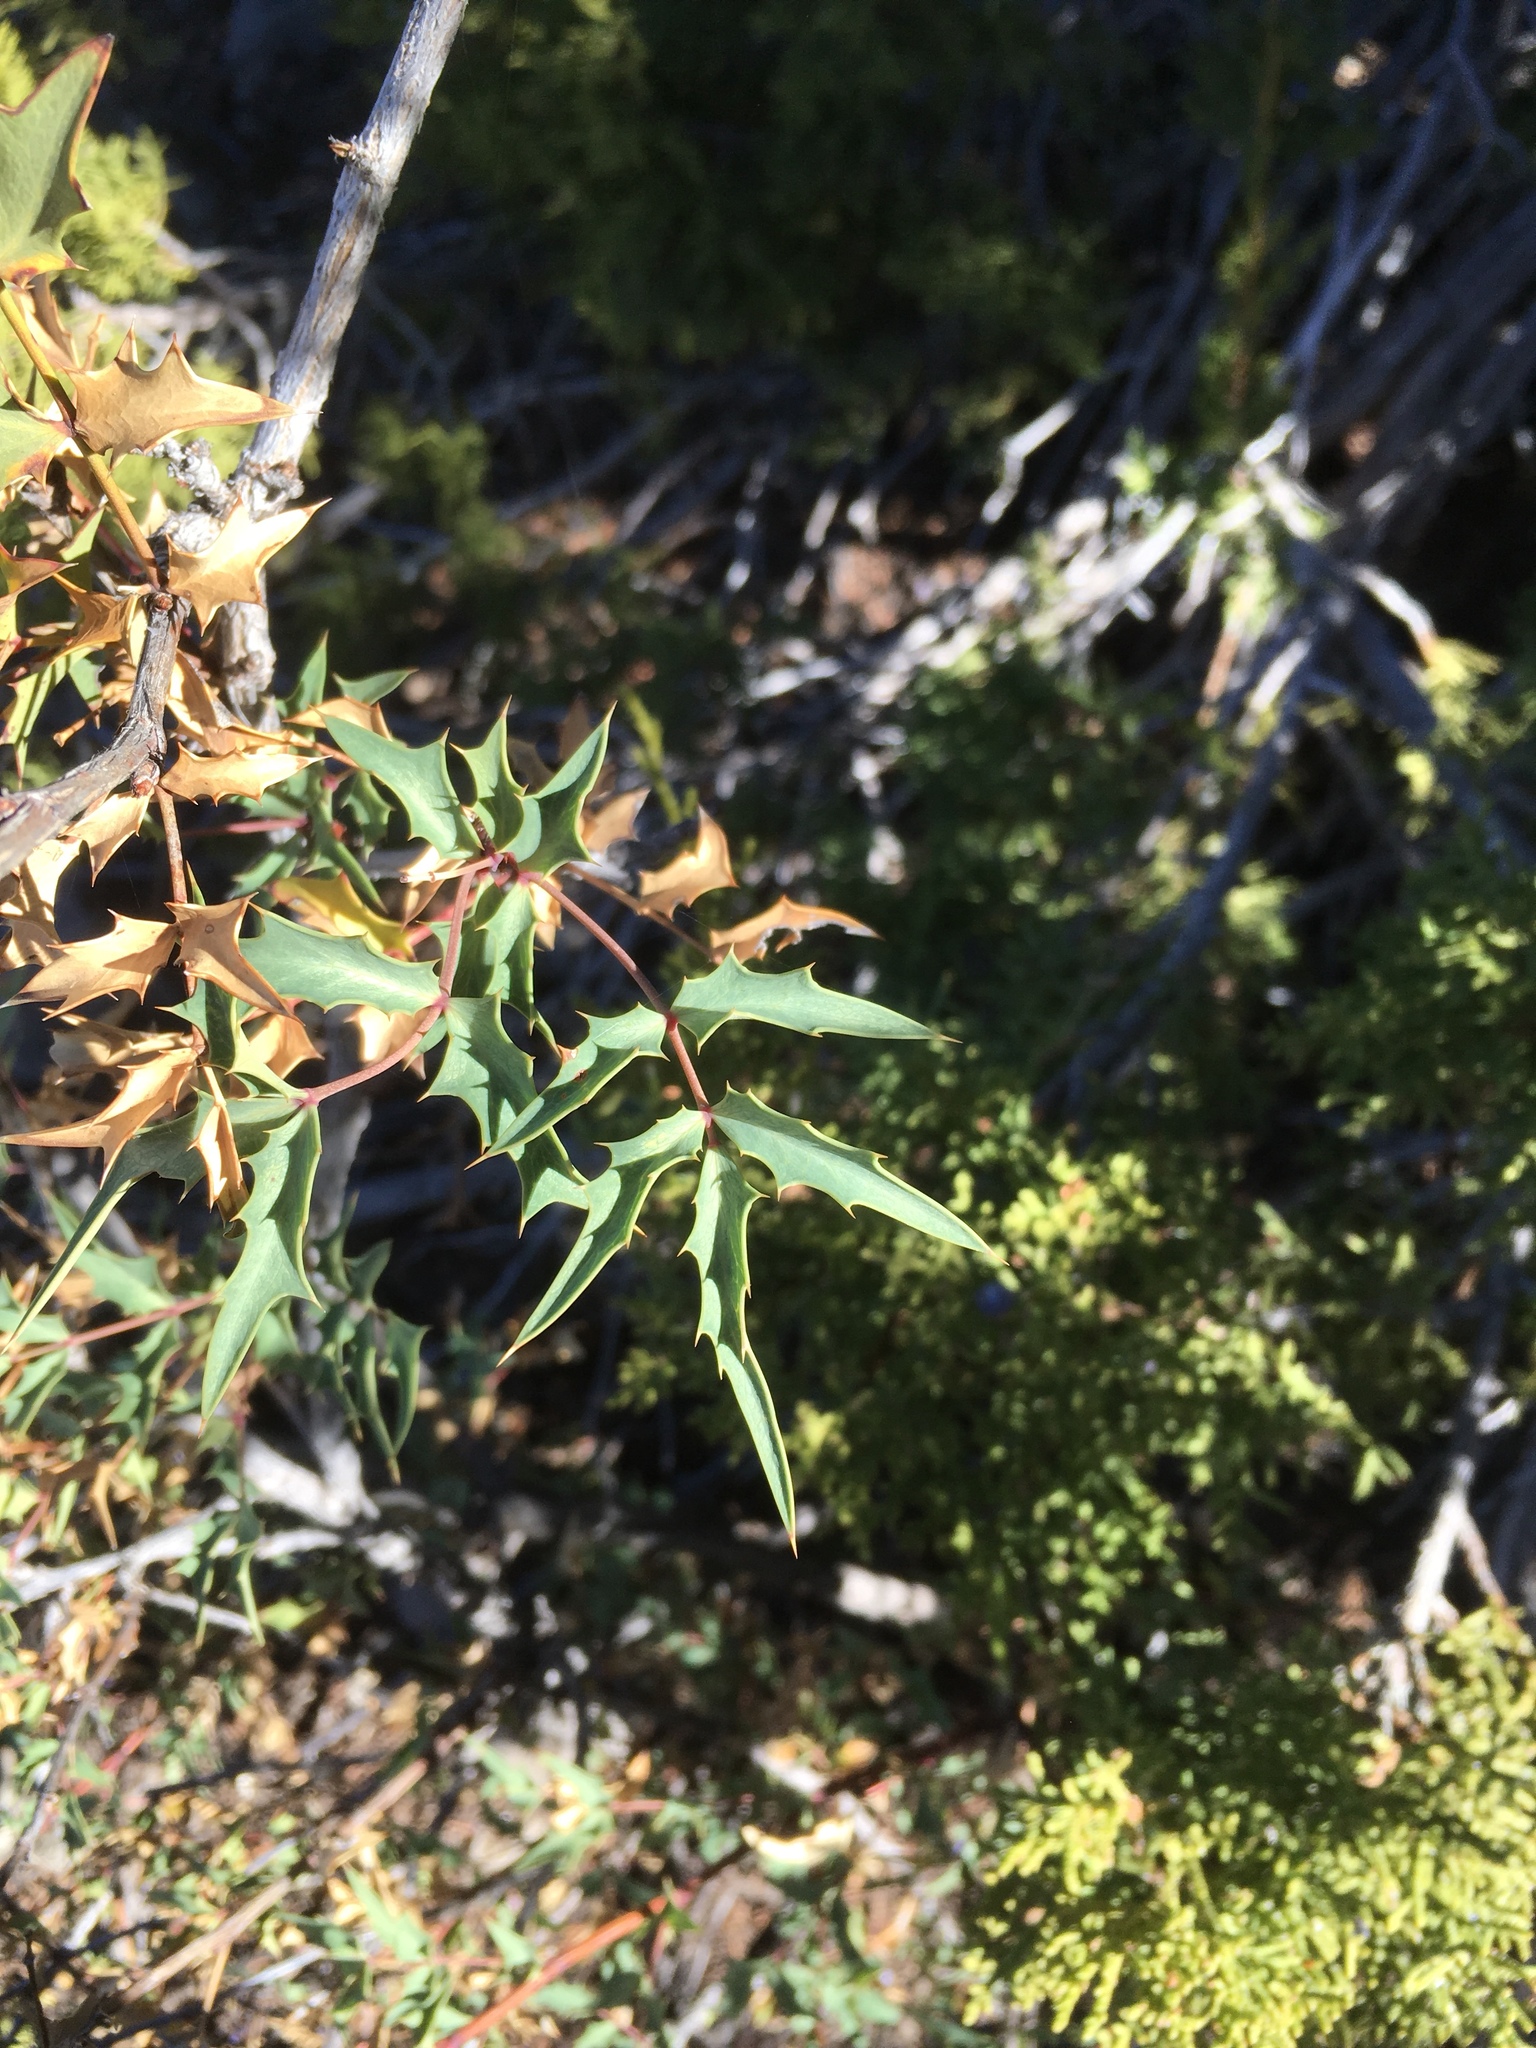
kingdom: Plantae
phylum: Tracheophyta
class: Magnoliopsida
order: Ranunculales
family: Berberidaceae
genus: Alloberberis
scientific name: Alloberberis haematocarpa
